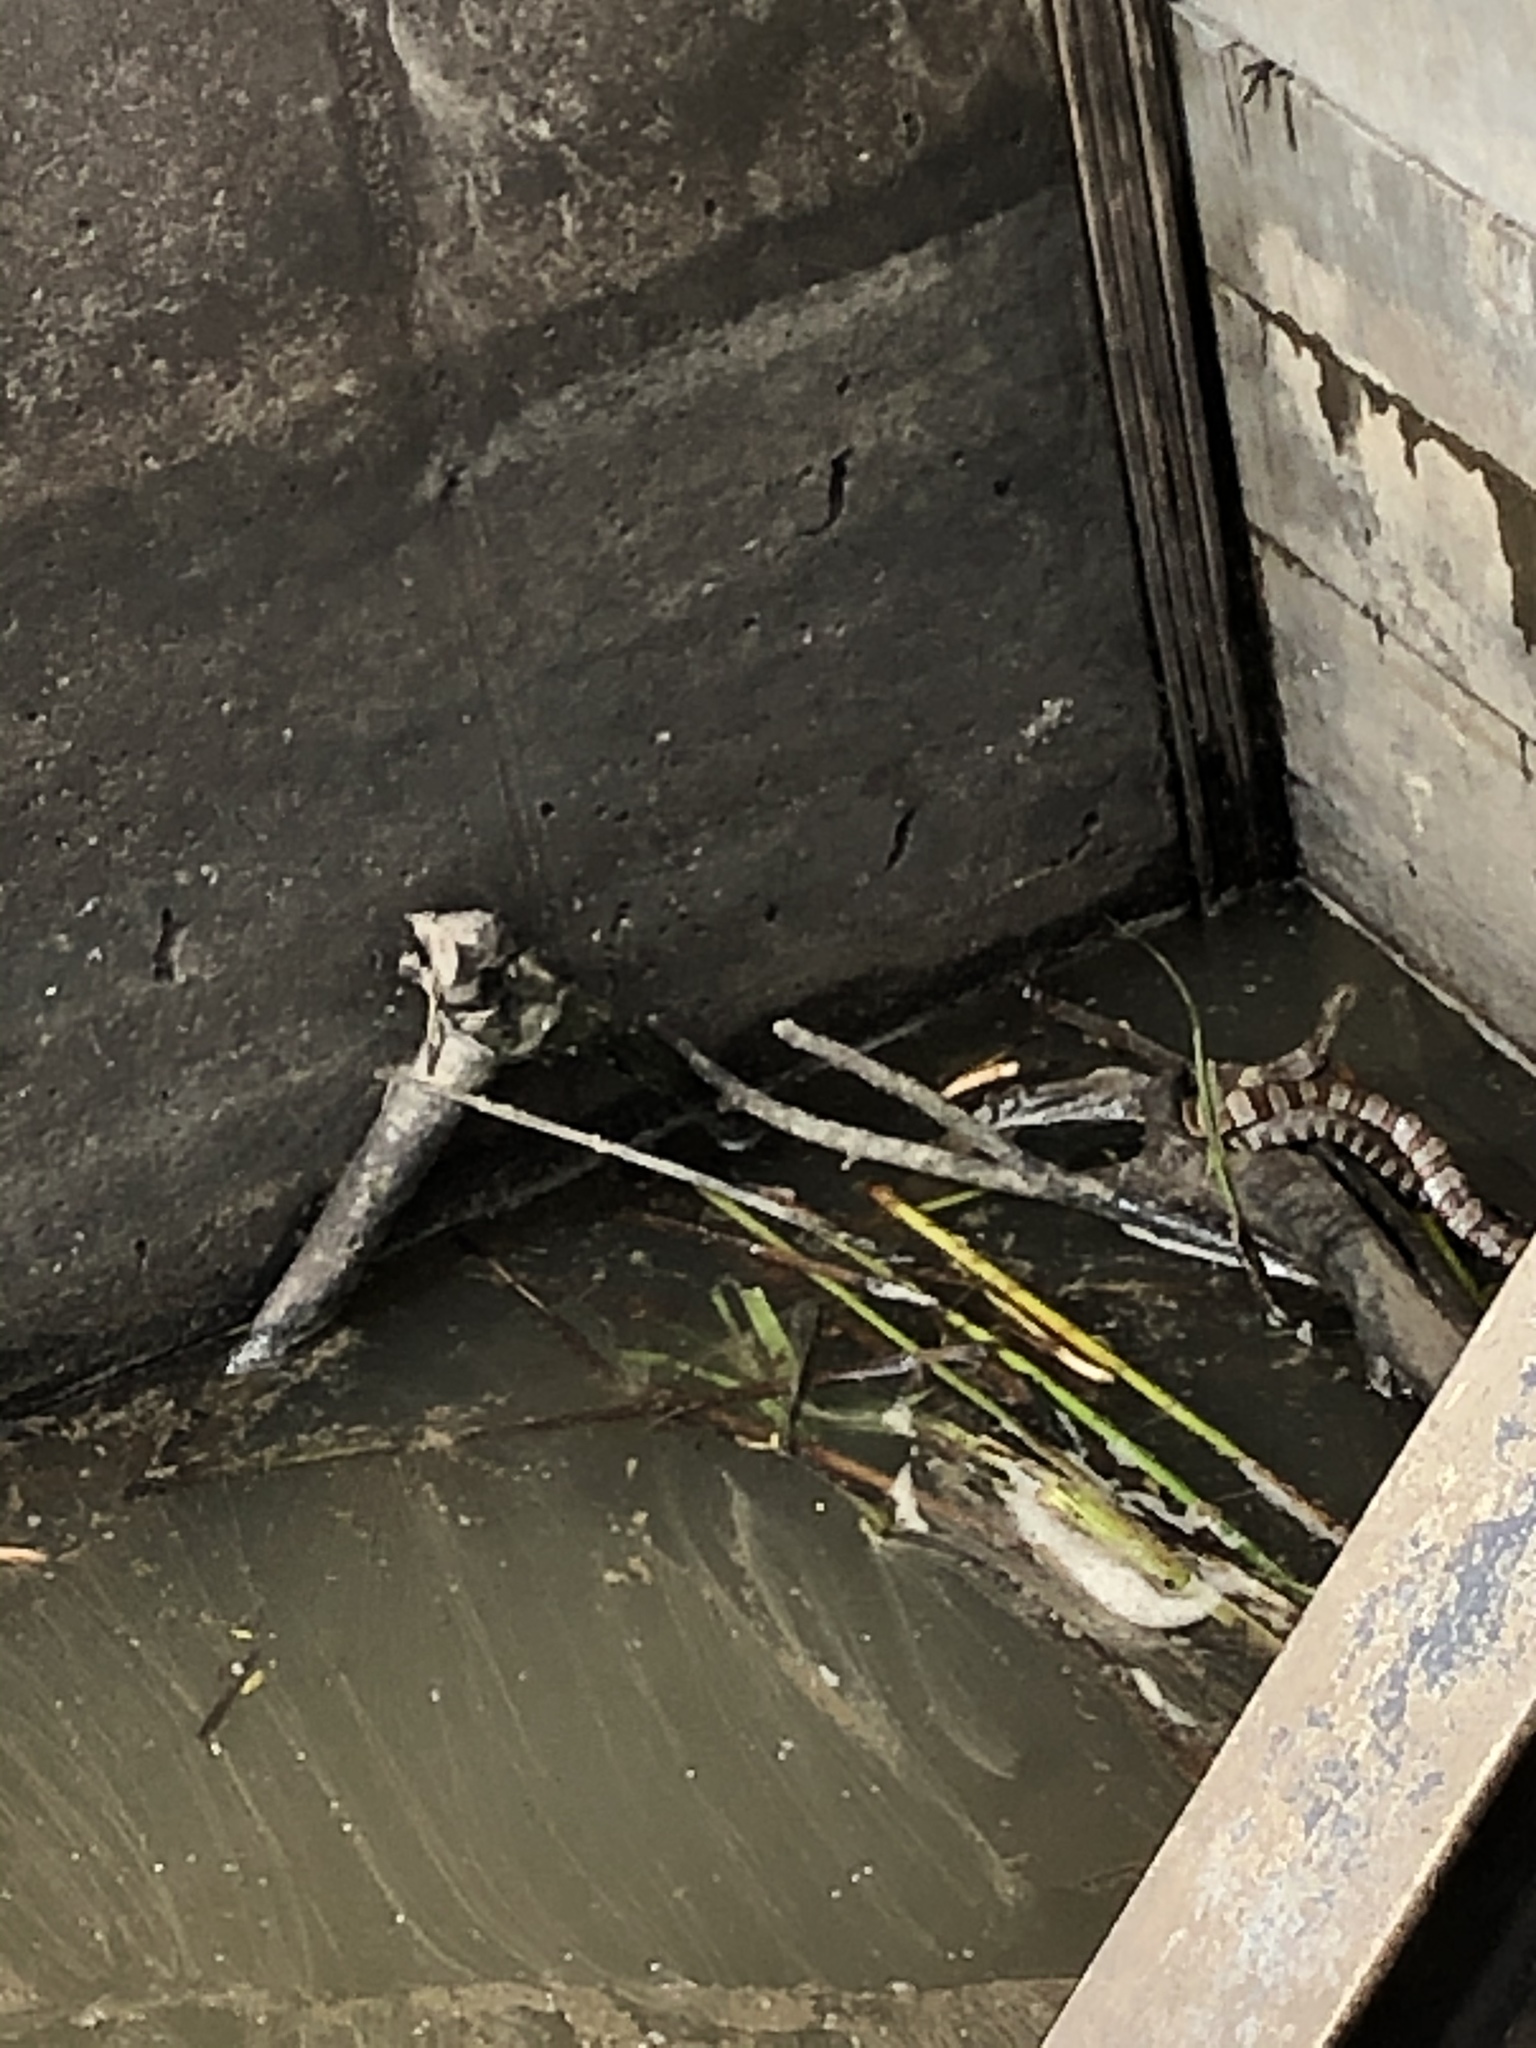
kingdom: Animalia
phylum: Chordata
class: Squamata
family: Colubridae
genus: Nerodia
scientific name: Nerodia sipedon
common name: Northern water snake
